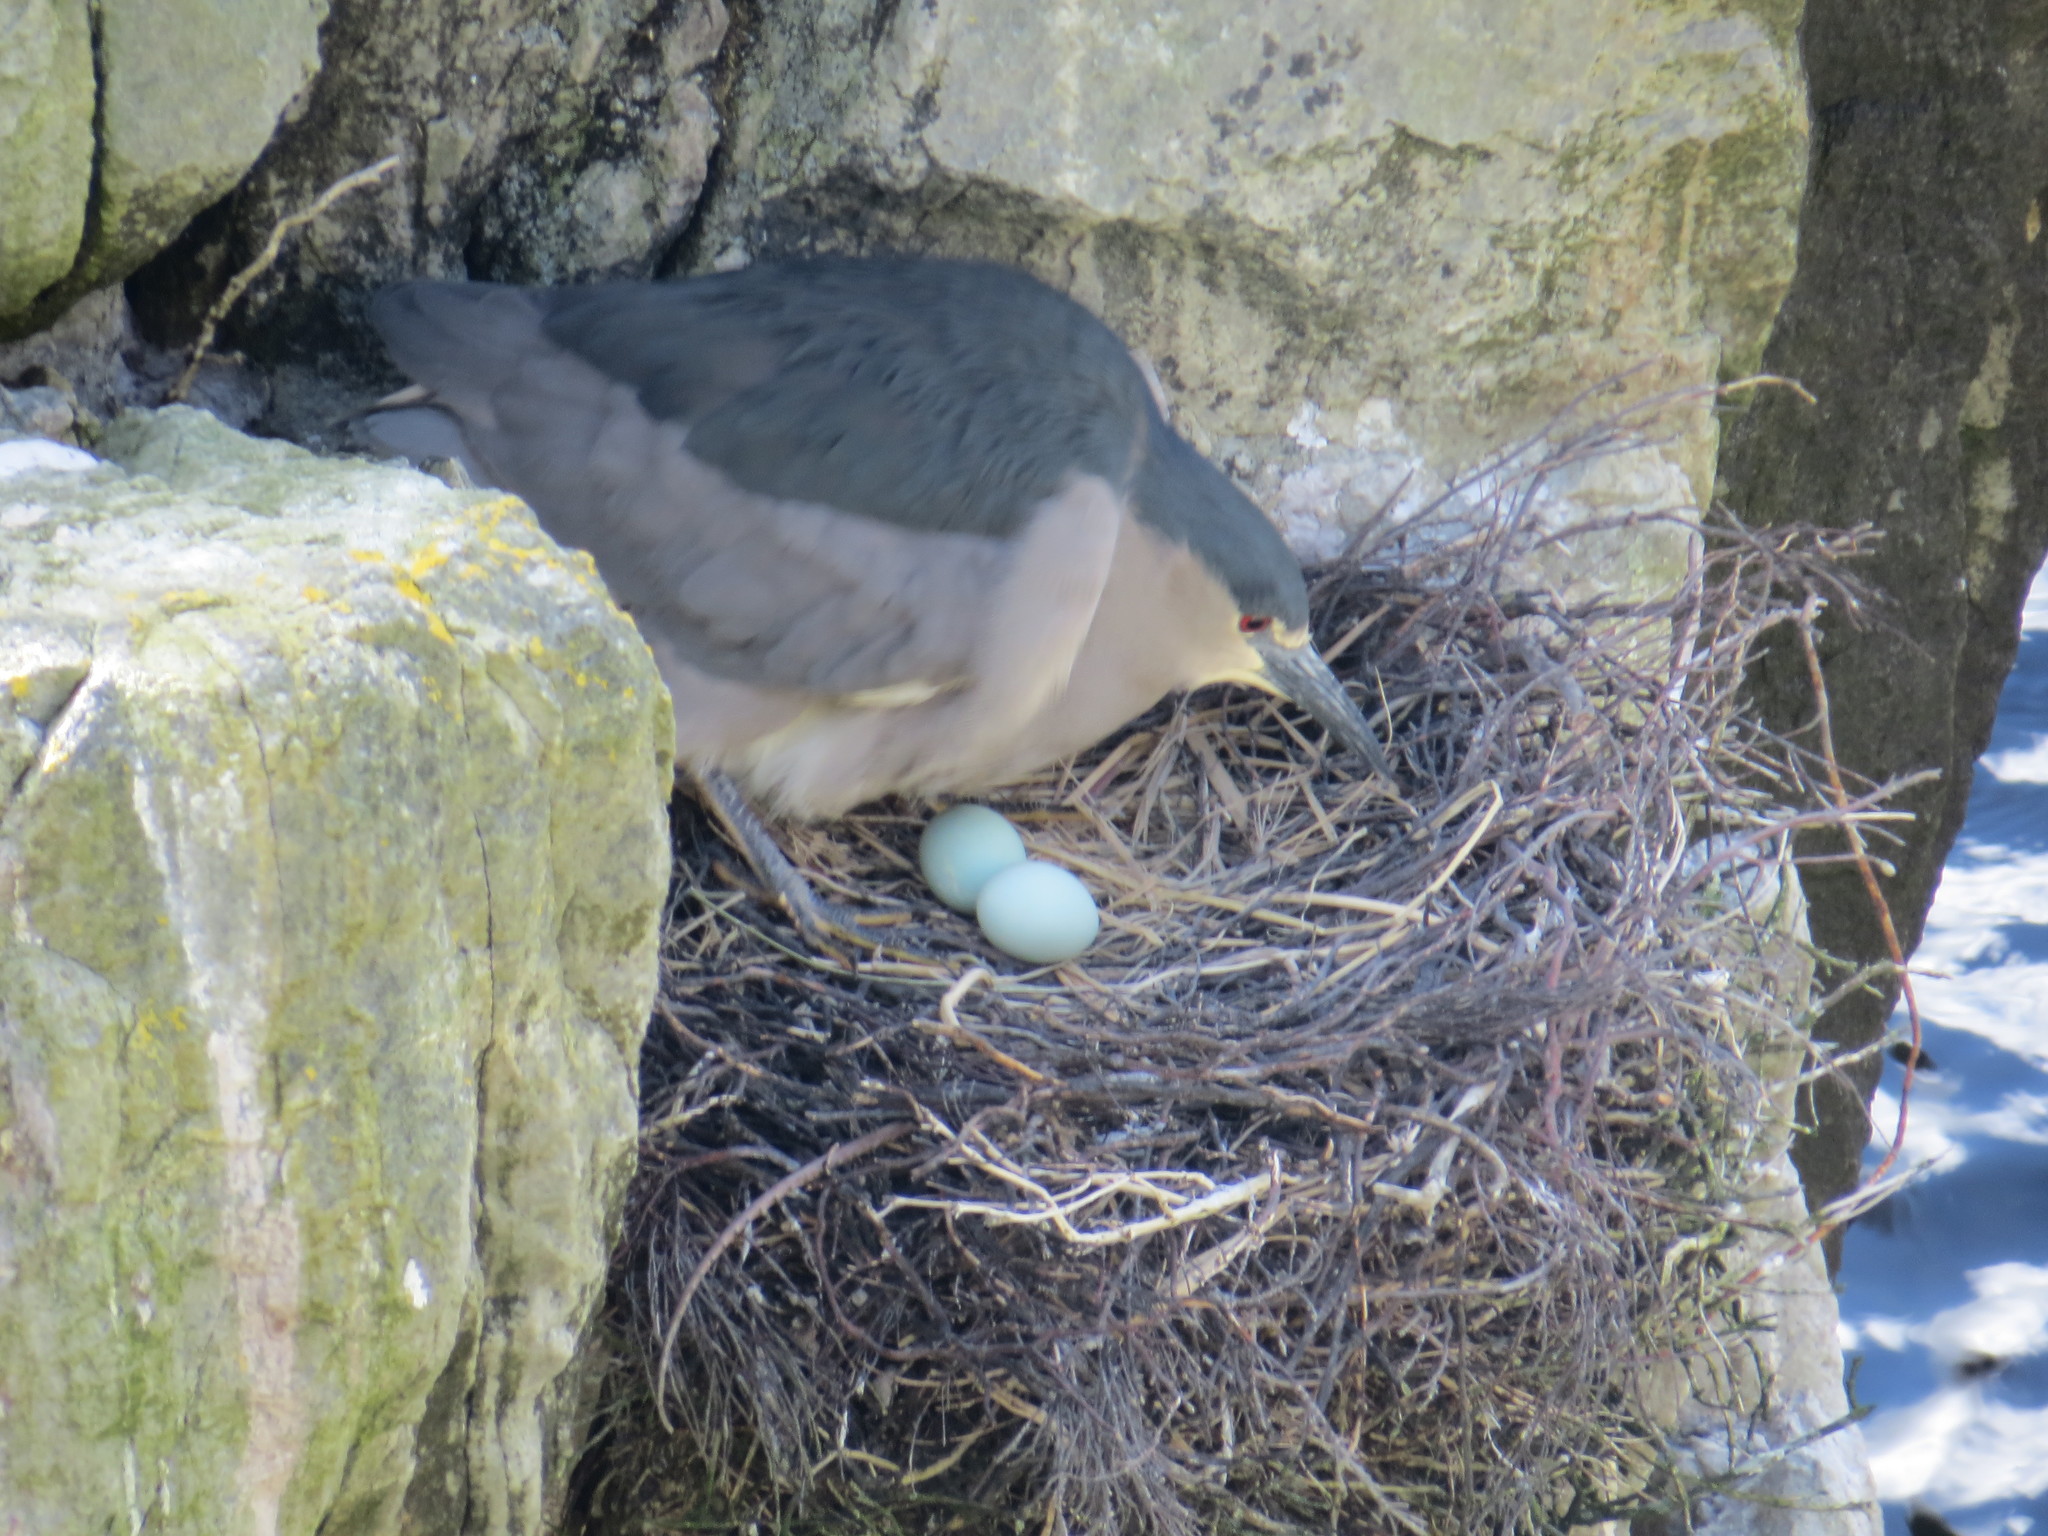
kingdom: Animalia
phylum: Chordata
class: Aves
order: Pelecaniformes
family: Ardeidae
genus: Nycticorax
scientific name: Nycticorax nycticorax
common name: Black-crowned night heron
